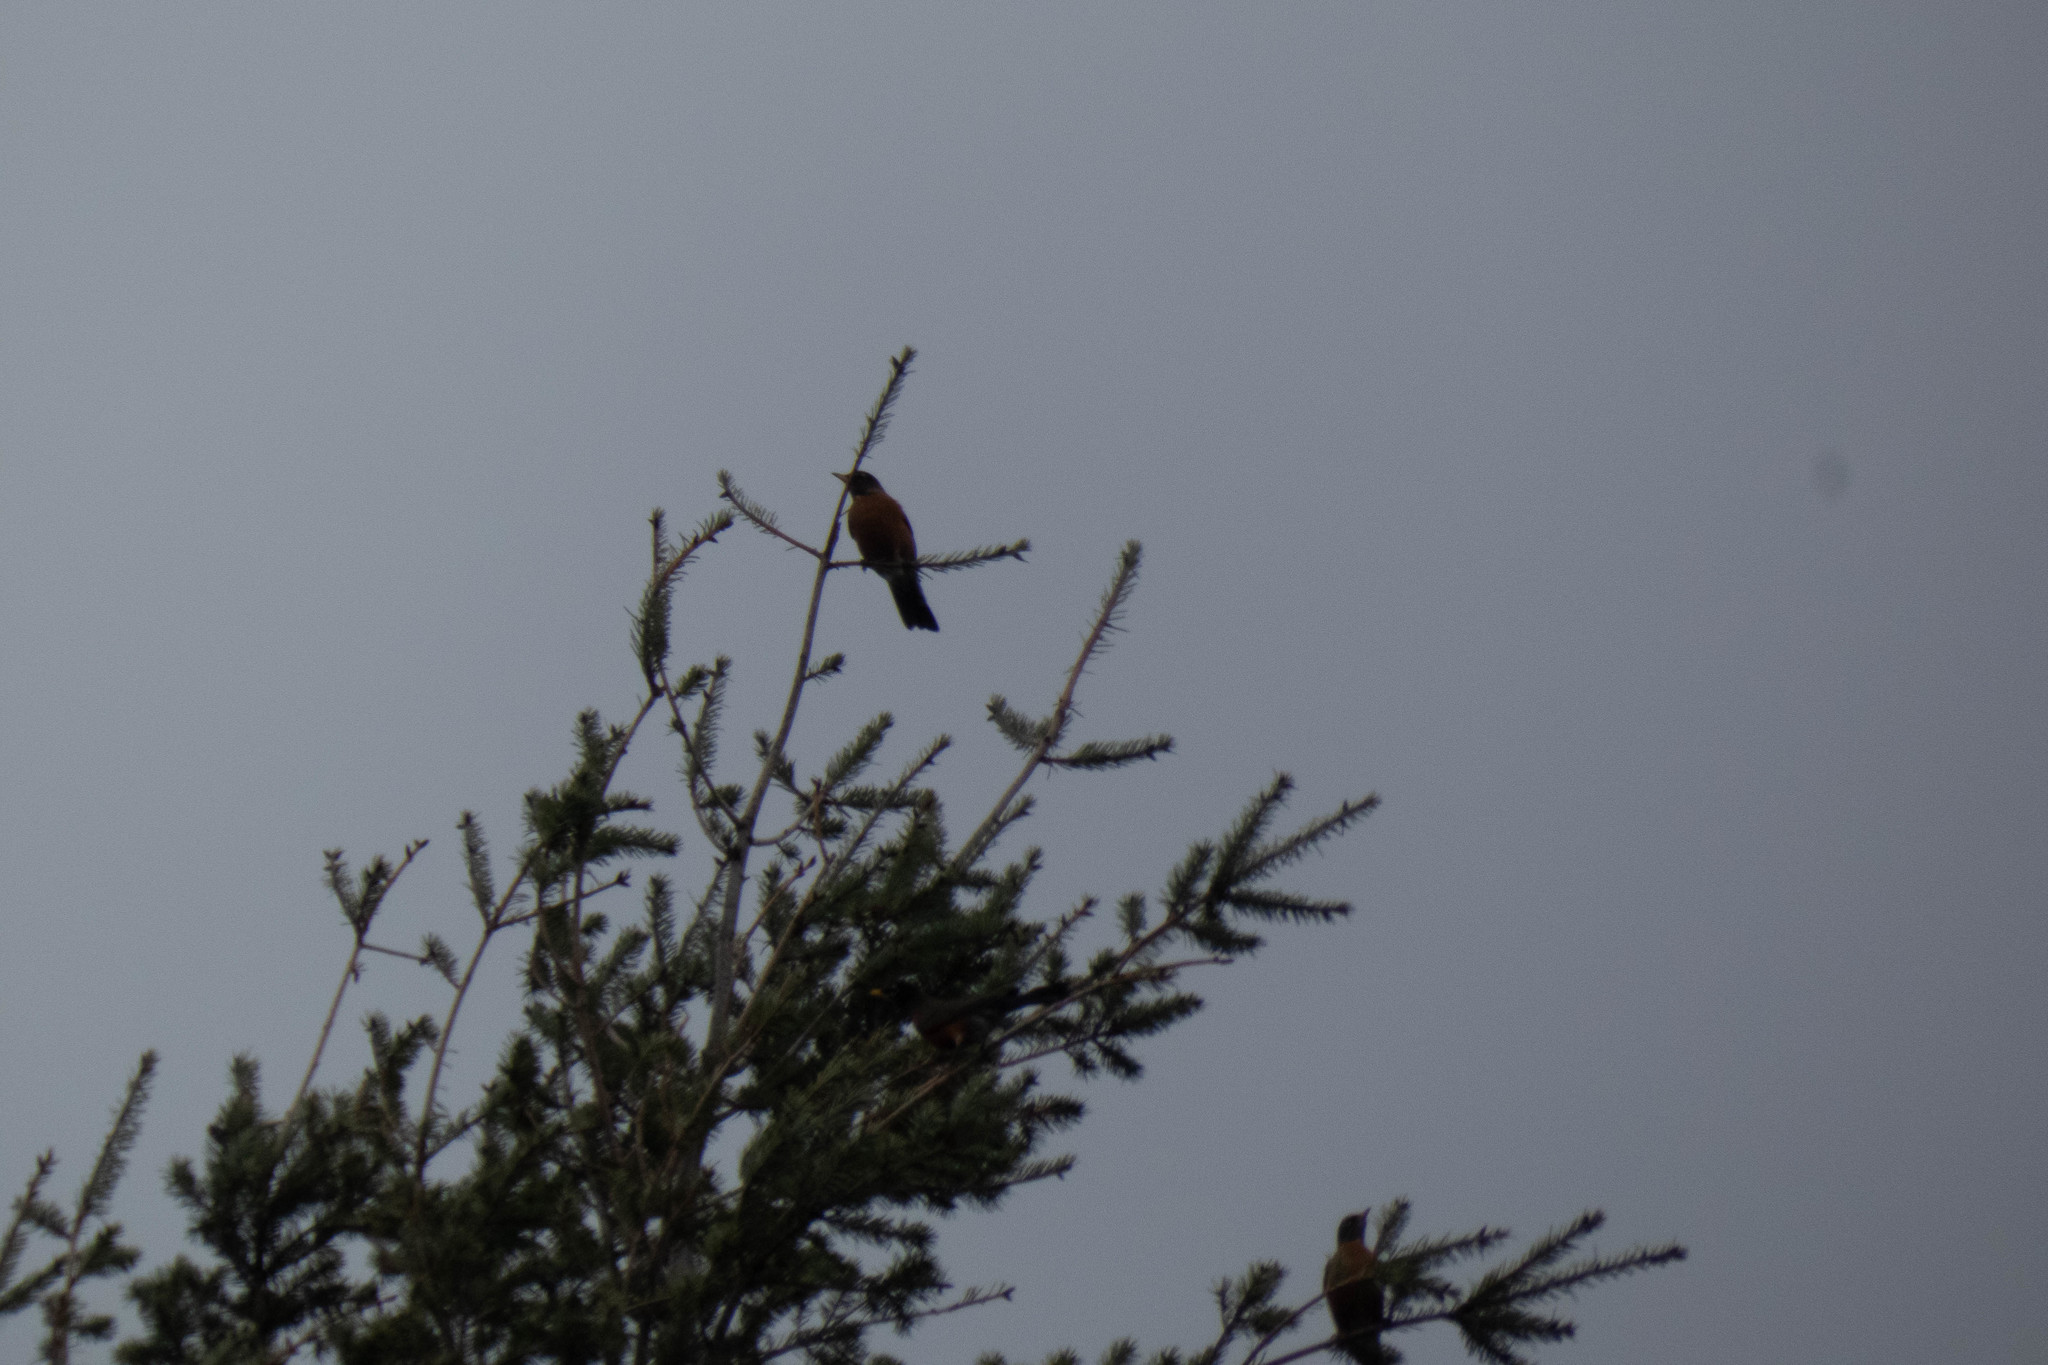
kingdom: Animalia
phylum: Chordata
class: Aves
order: Passeriformes
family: Turdidae
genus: Turdus
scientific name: Turdus migratorius
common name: American robin
